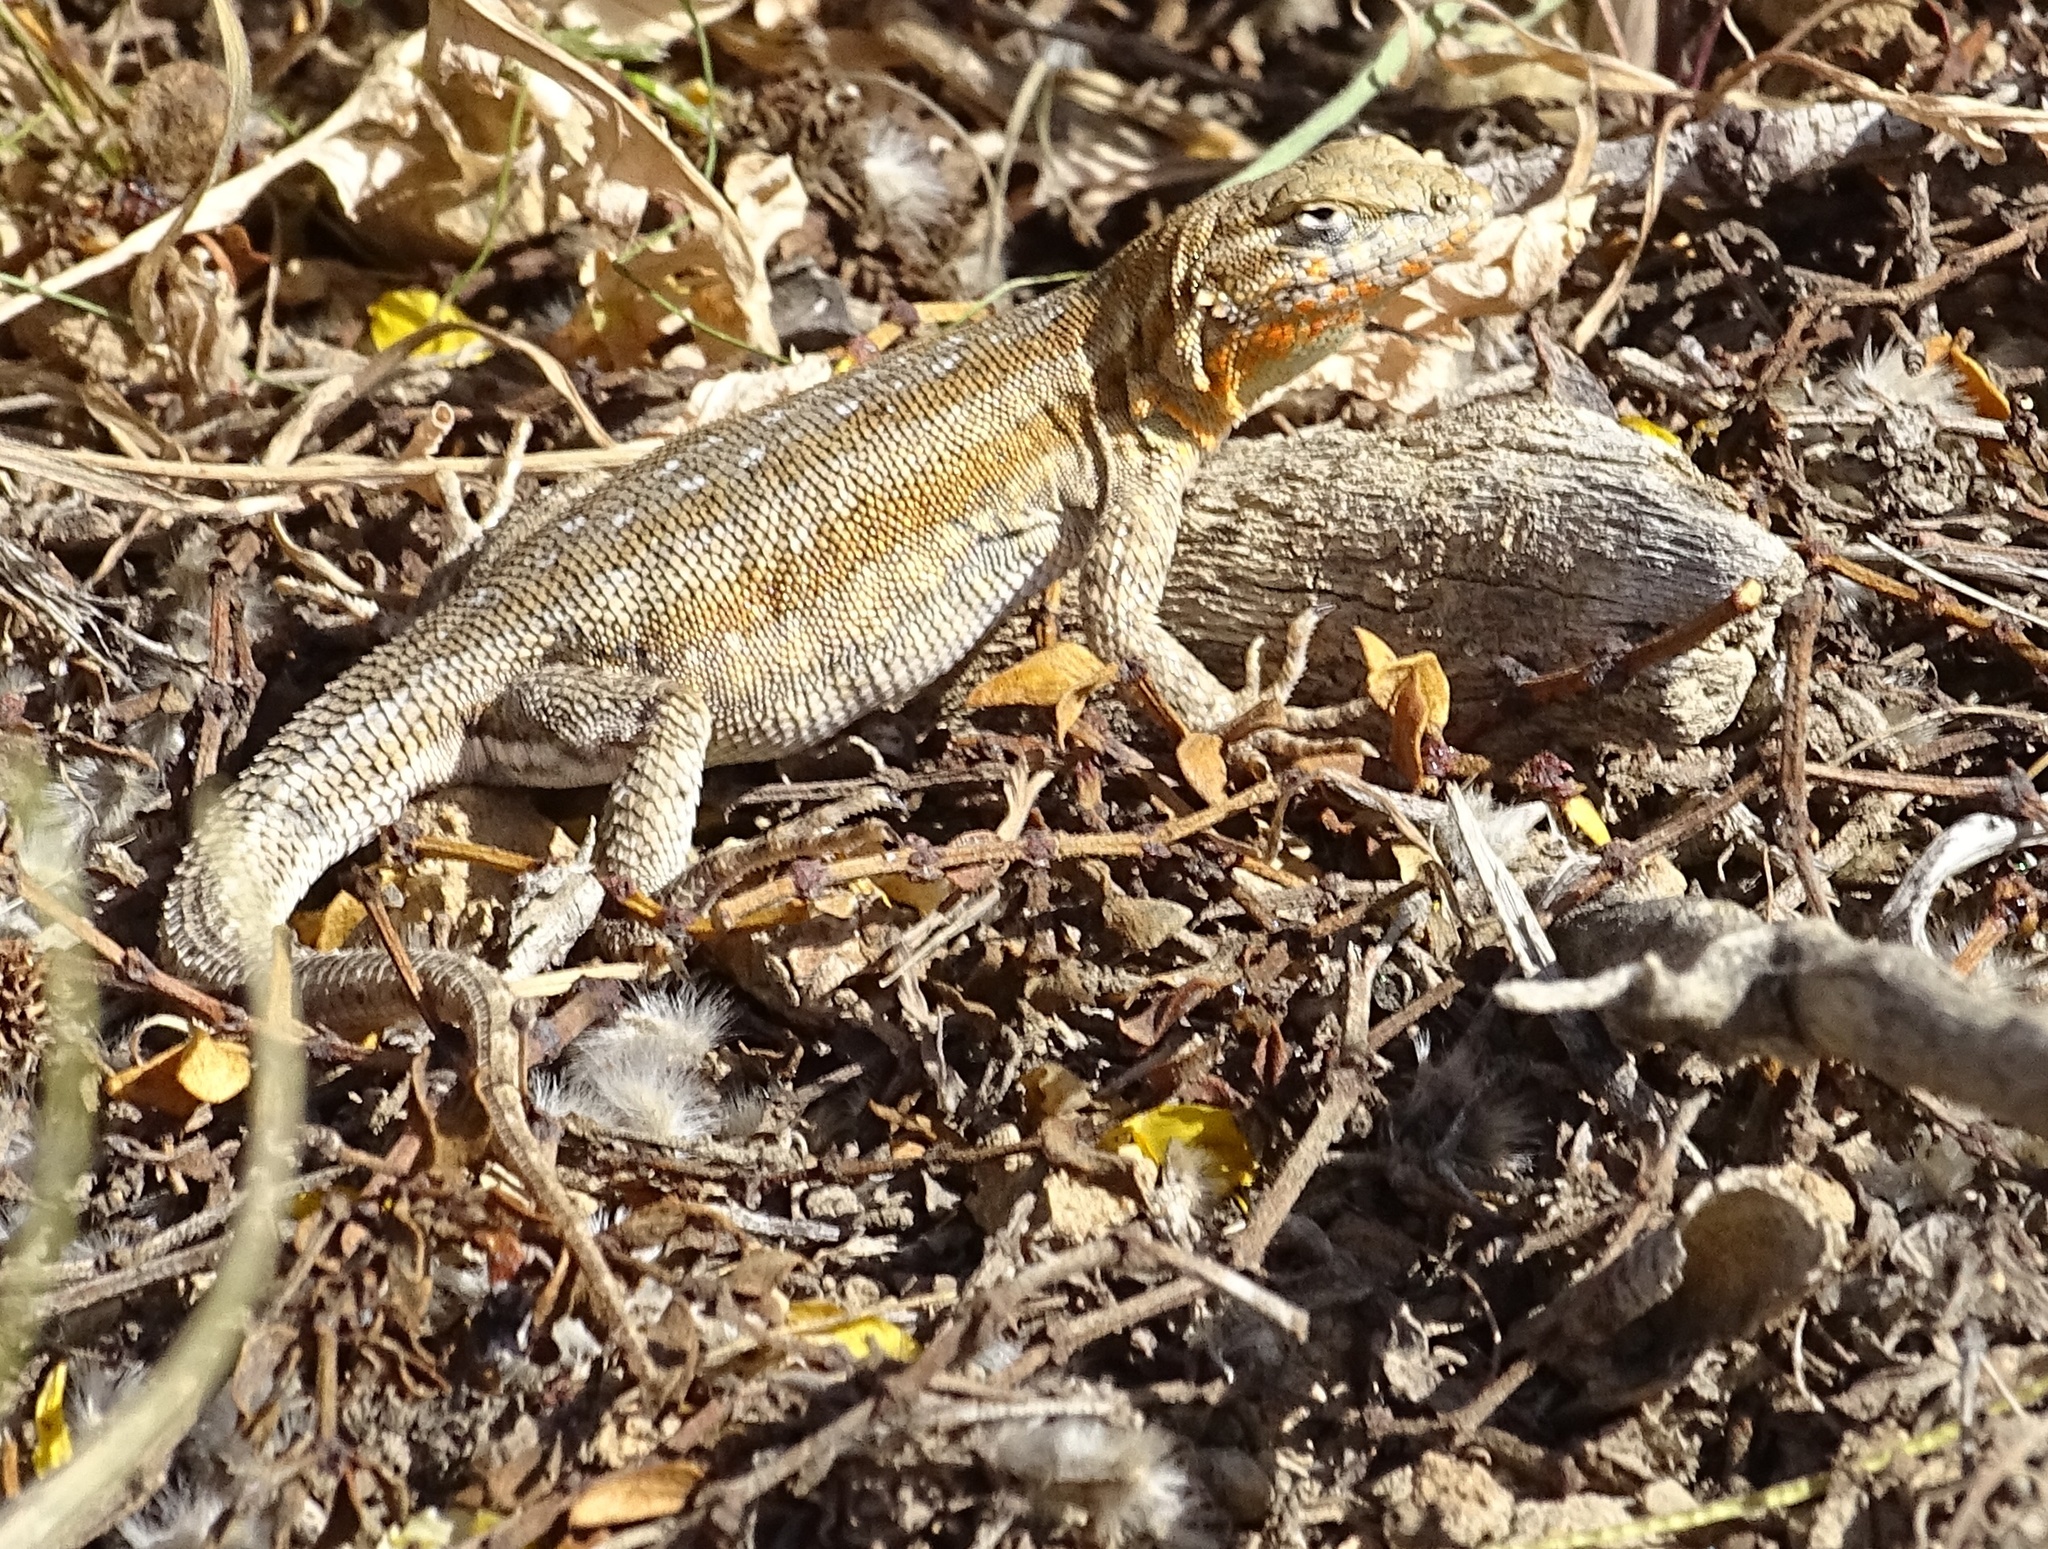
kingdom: Animalia
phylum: Chordata
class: Squamata
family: Phrynosomatidae
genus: Uta
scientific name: Uta stansburiana
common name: Side-blotched lizard
